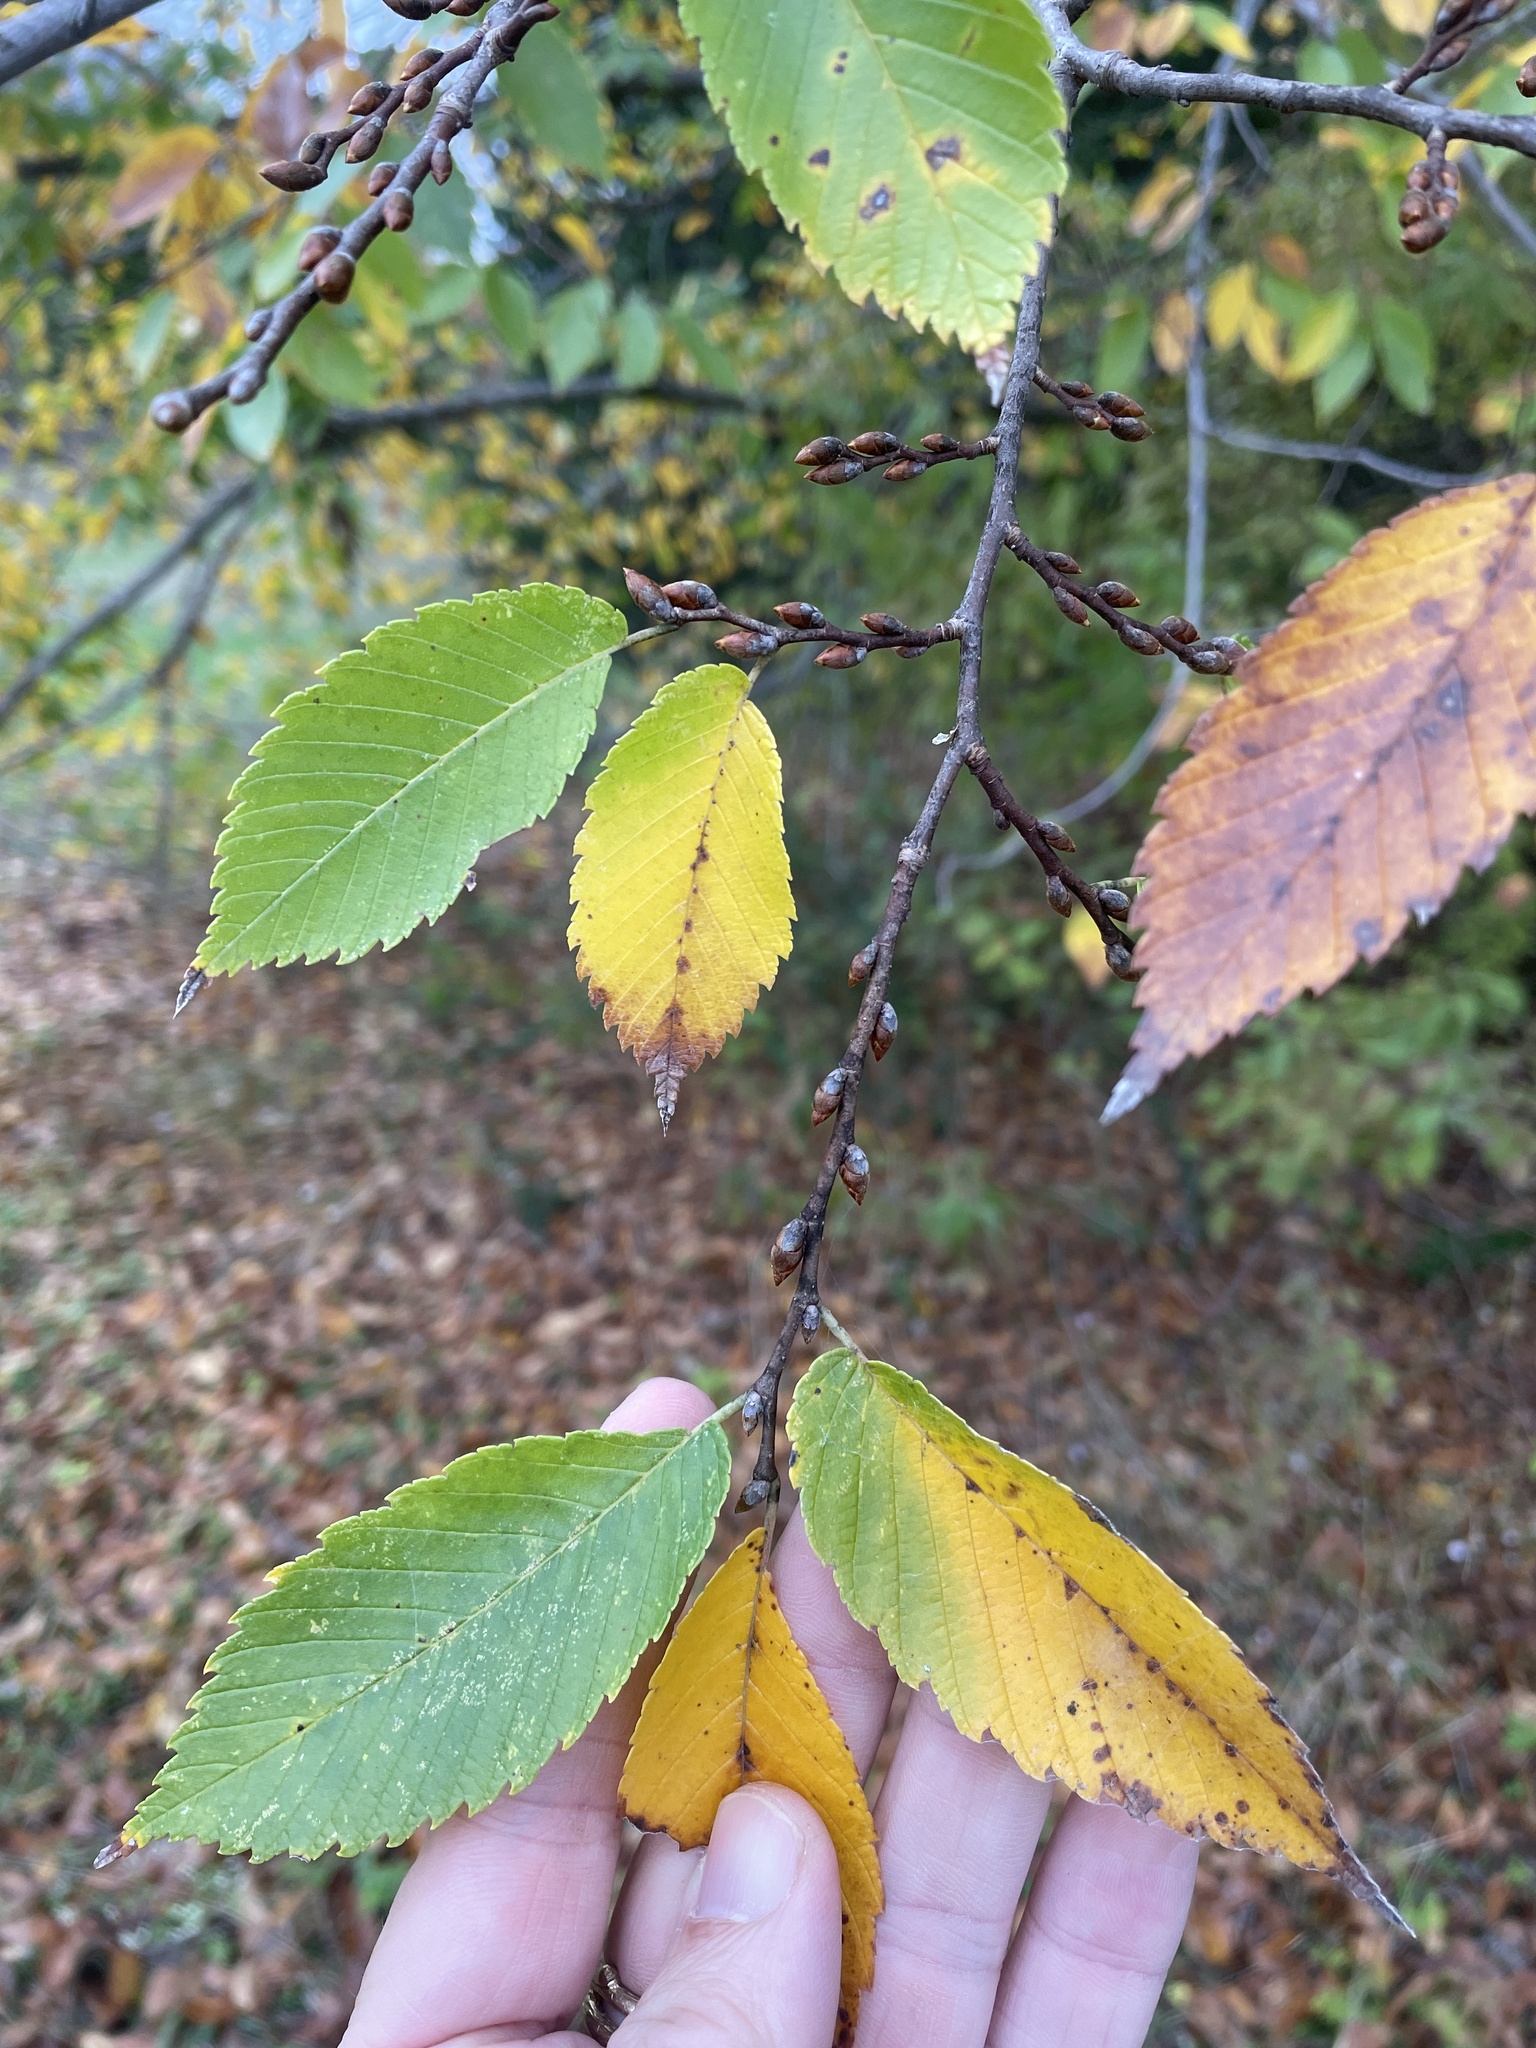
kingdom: Plantae
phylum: Tracheophyta
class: Magnoliopsida
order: Rosales
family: Ulmaceae
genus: Ulmus
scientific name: Ulmus americana
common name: American elm
